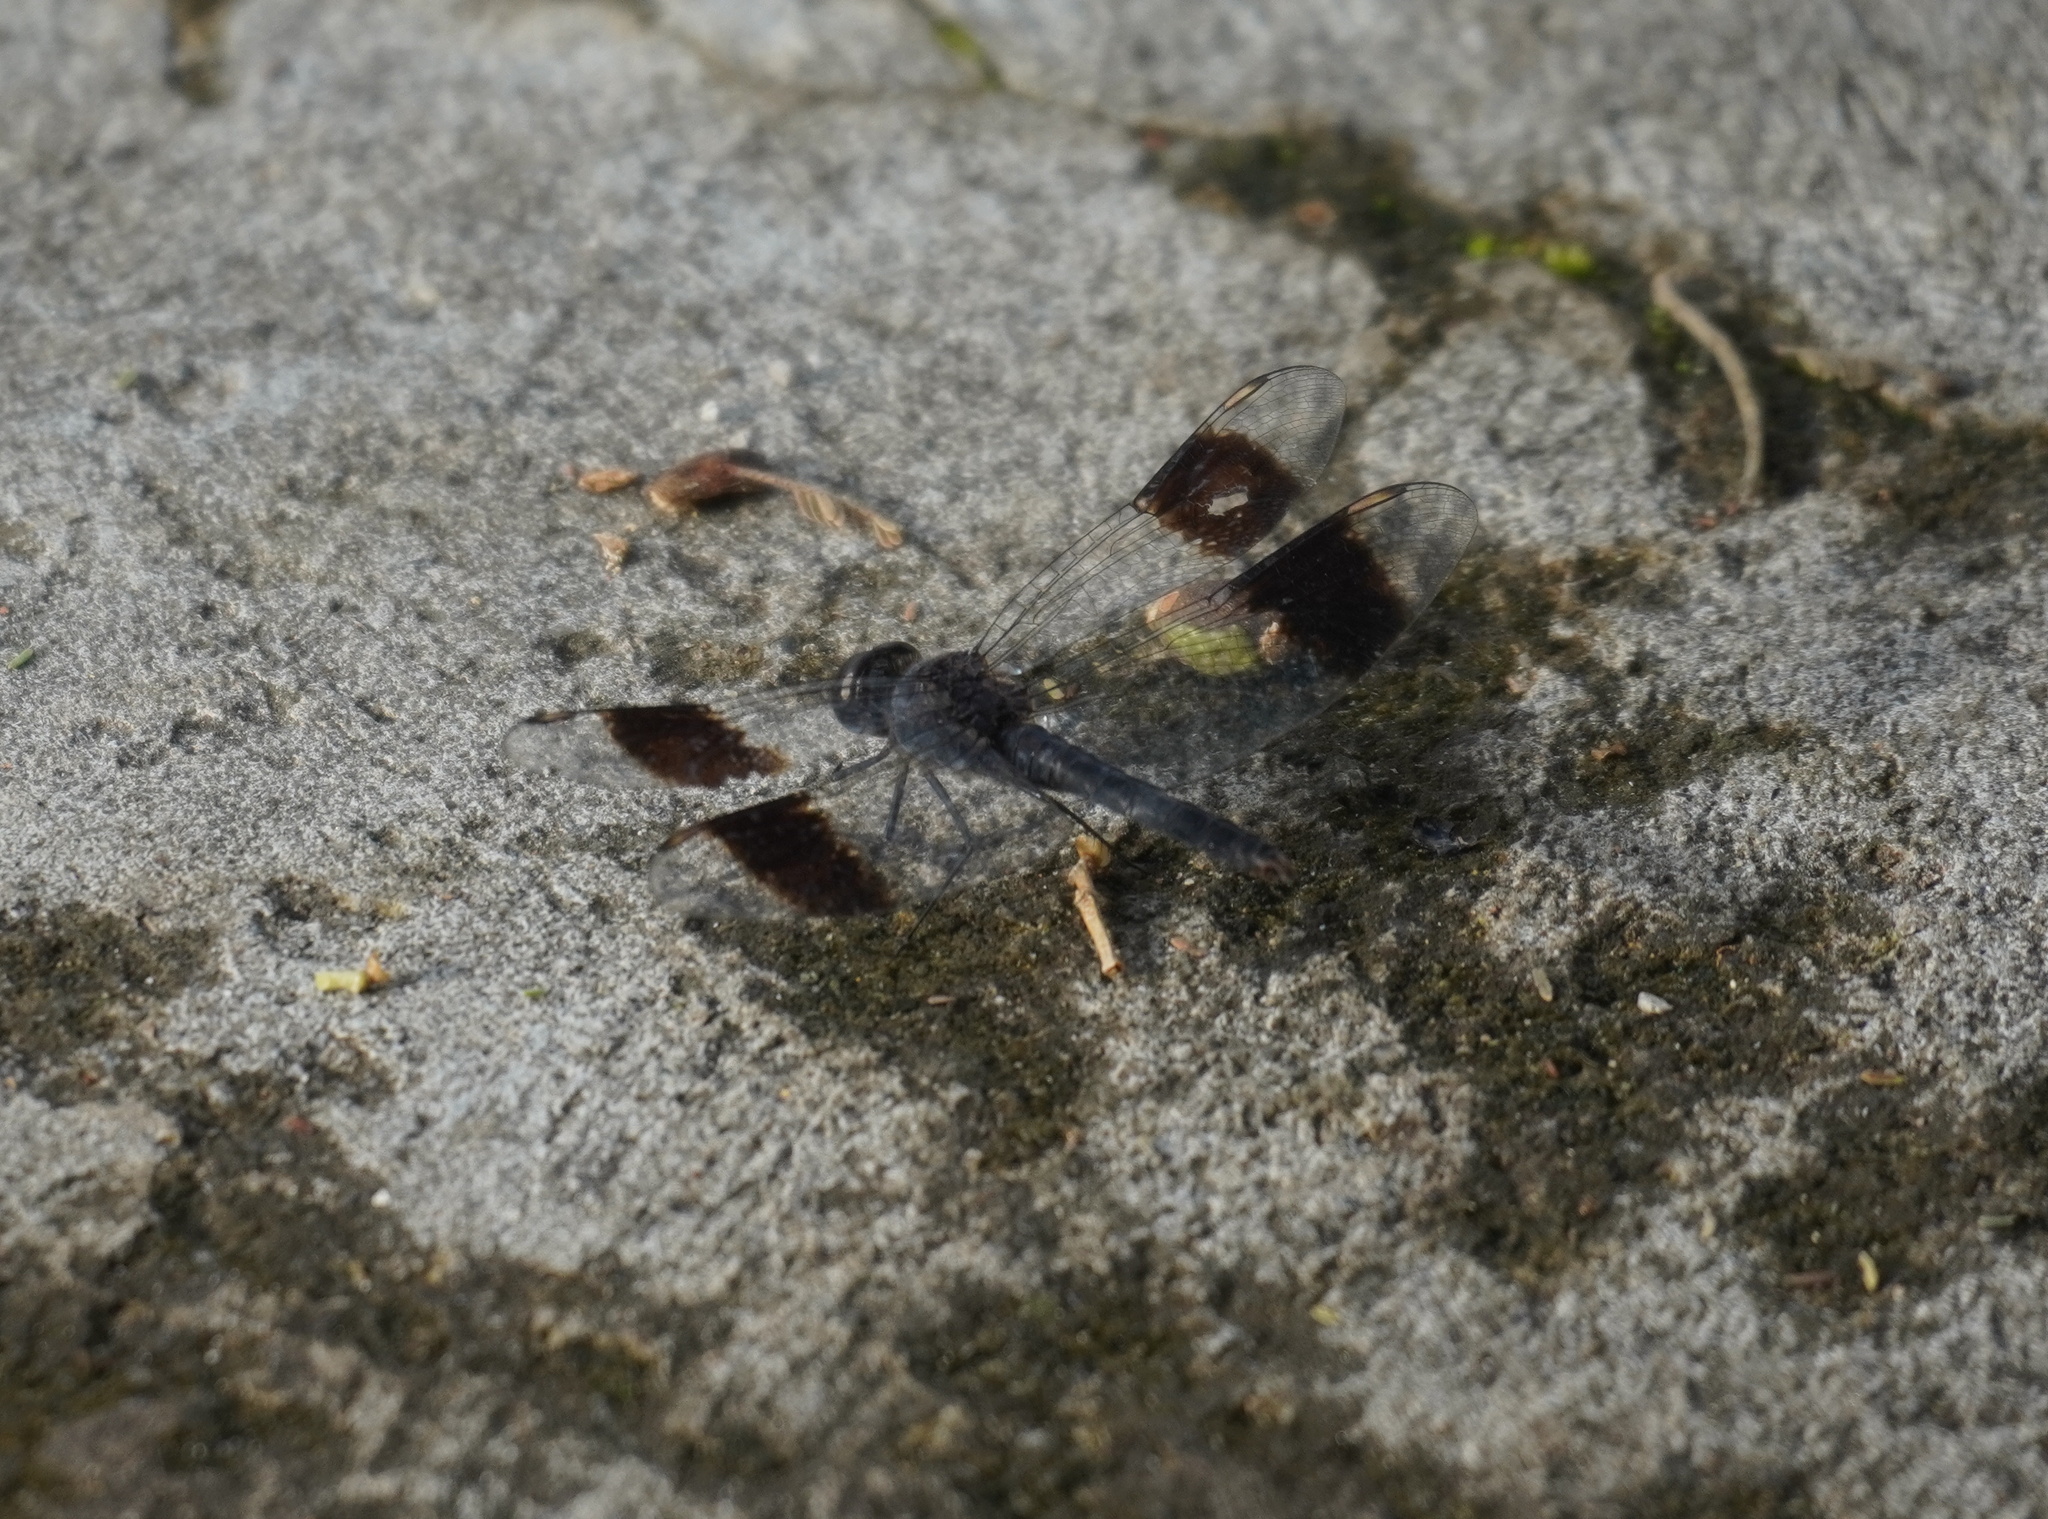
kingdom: Animalia
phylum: Arthropoda
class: Insecta
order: Odonata
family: Libellulidae
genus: Brachythemis
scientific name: Brachythemis leucosticta
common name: Banded groundling
